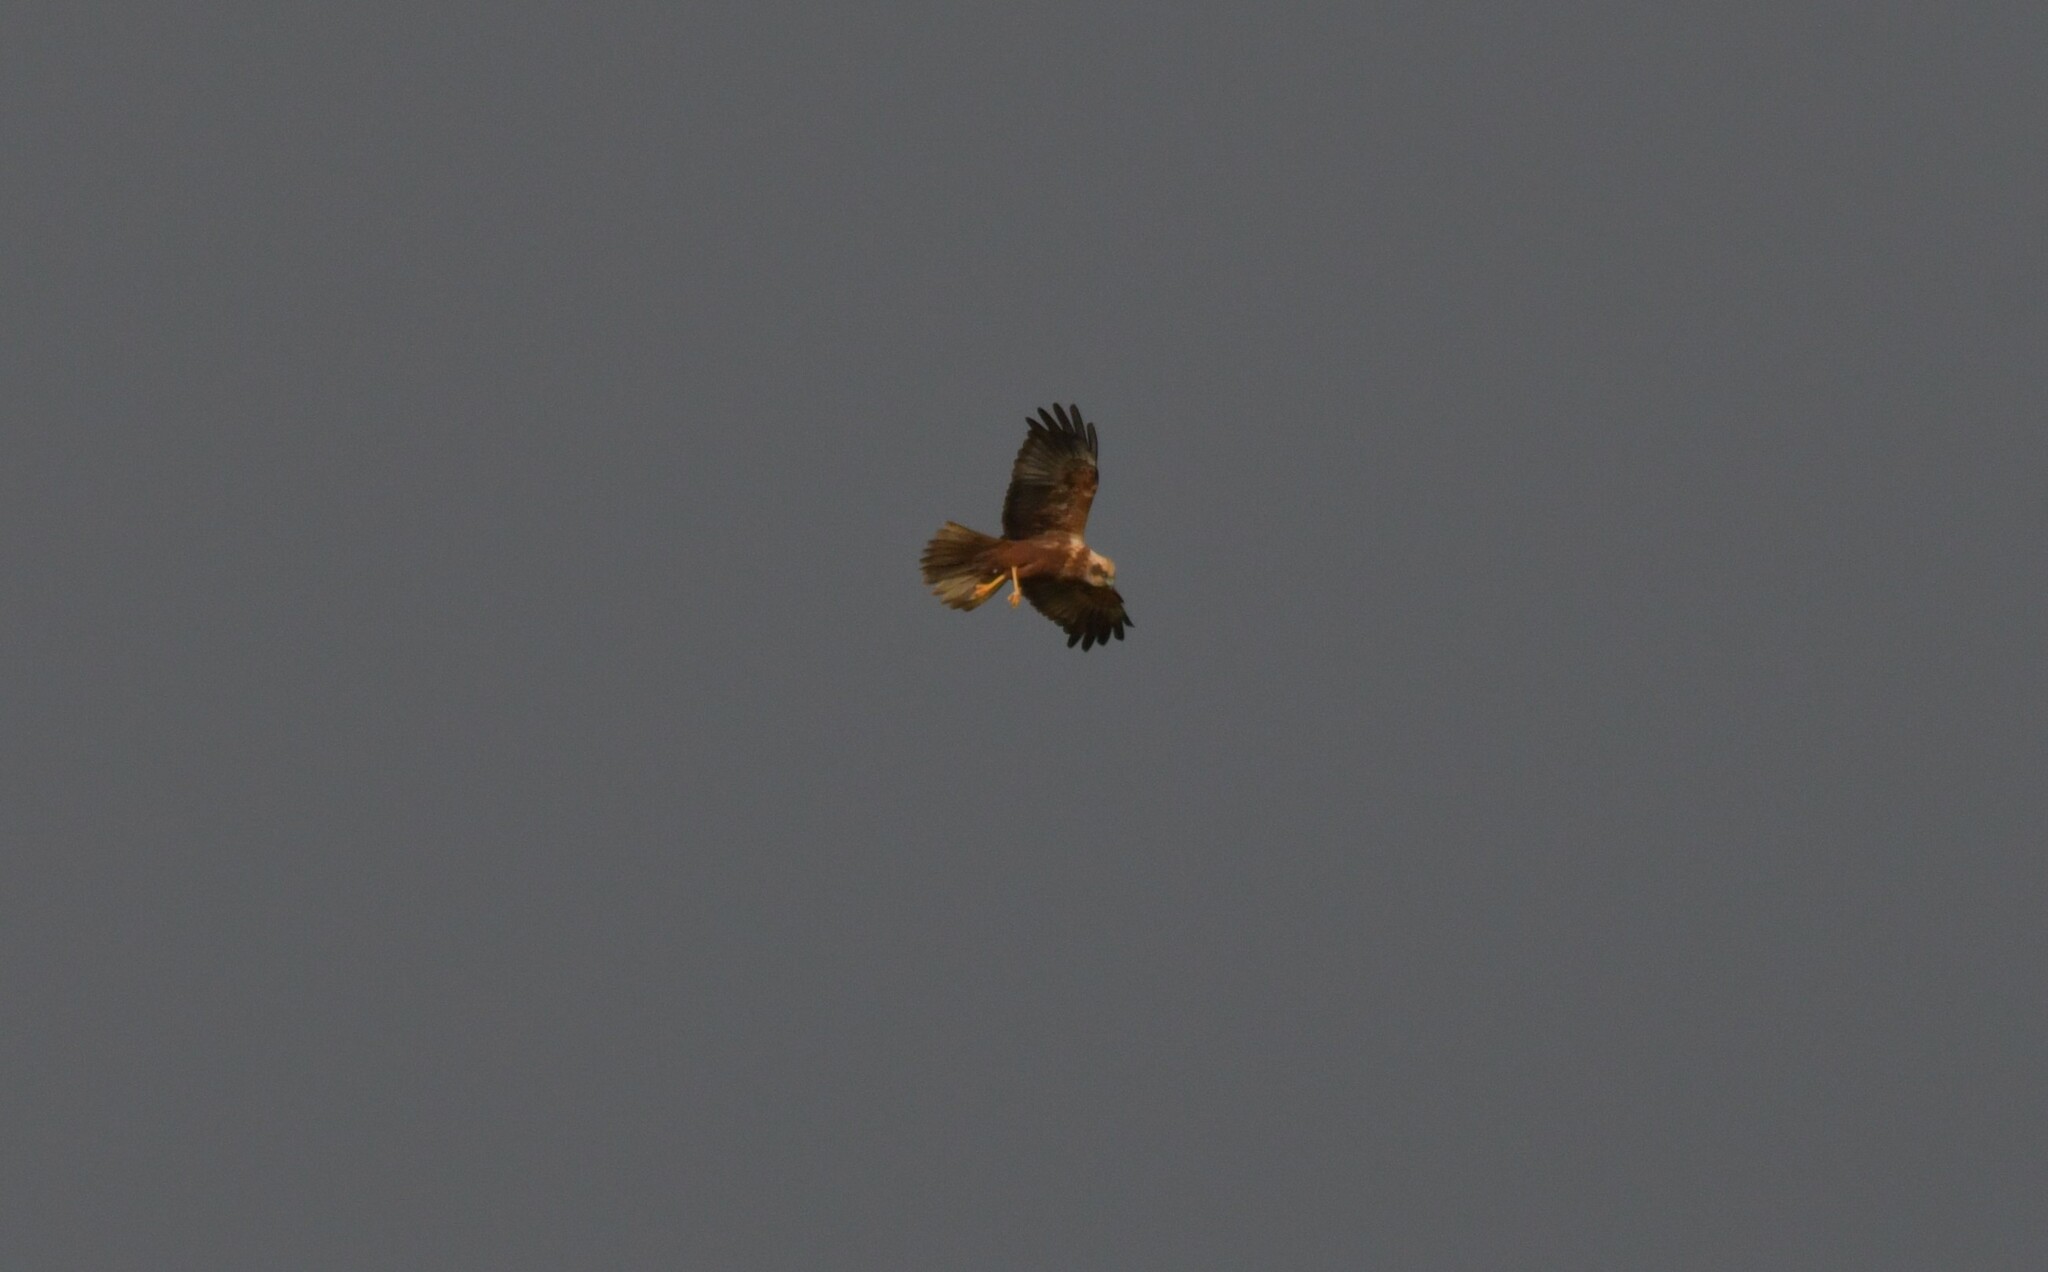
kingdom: Animalia
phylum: Chordata
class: Aves
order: Accipitriformes
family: Accipitridae
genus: Circus
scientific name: Circus aeruginosus
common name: Western marsh harrier
